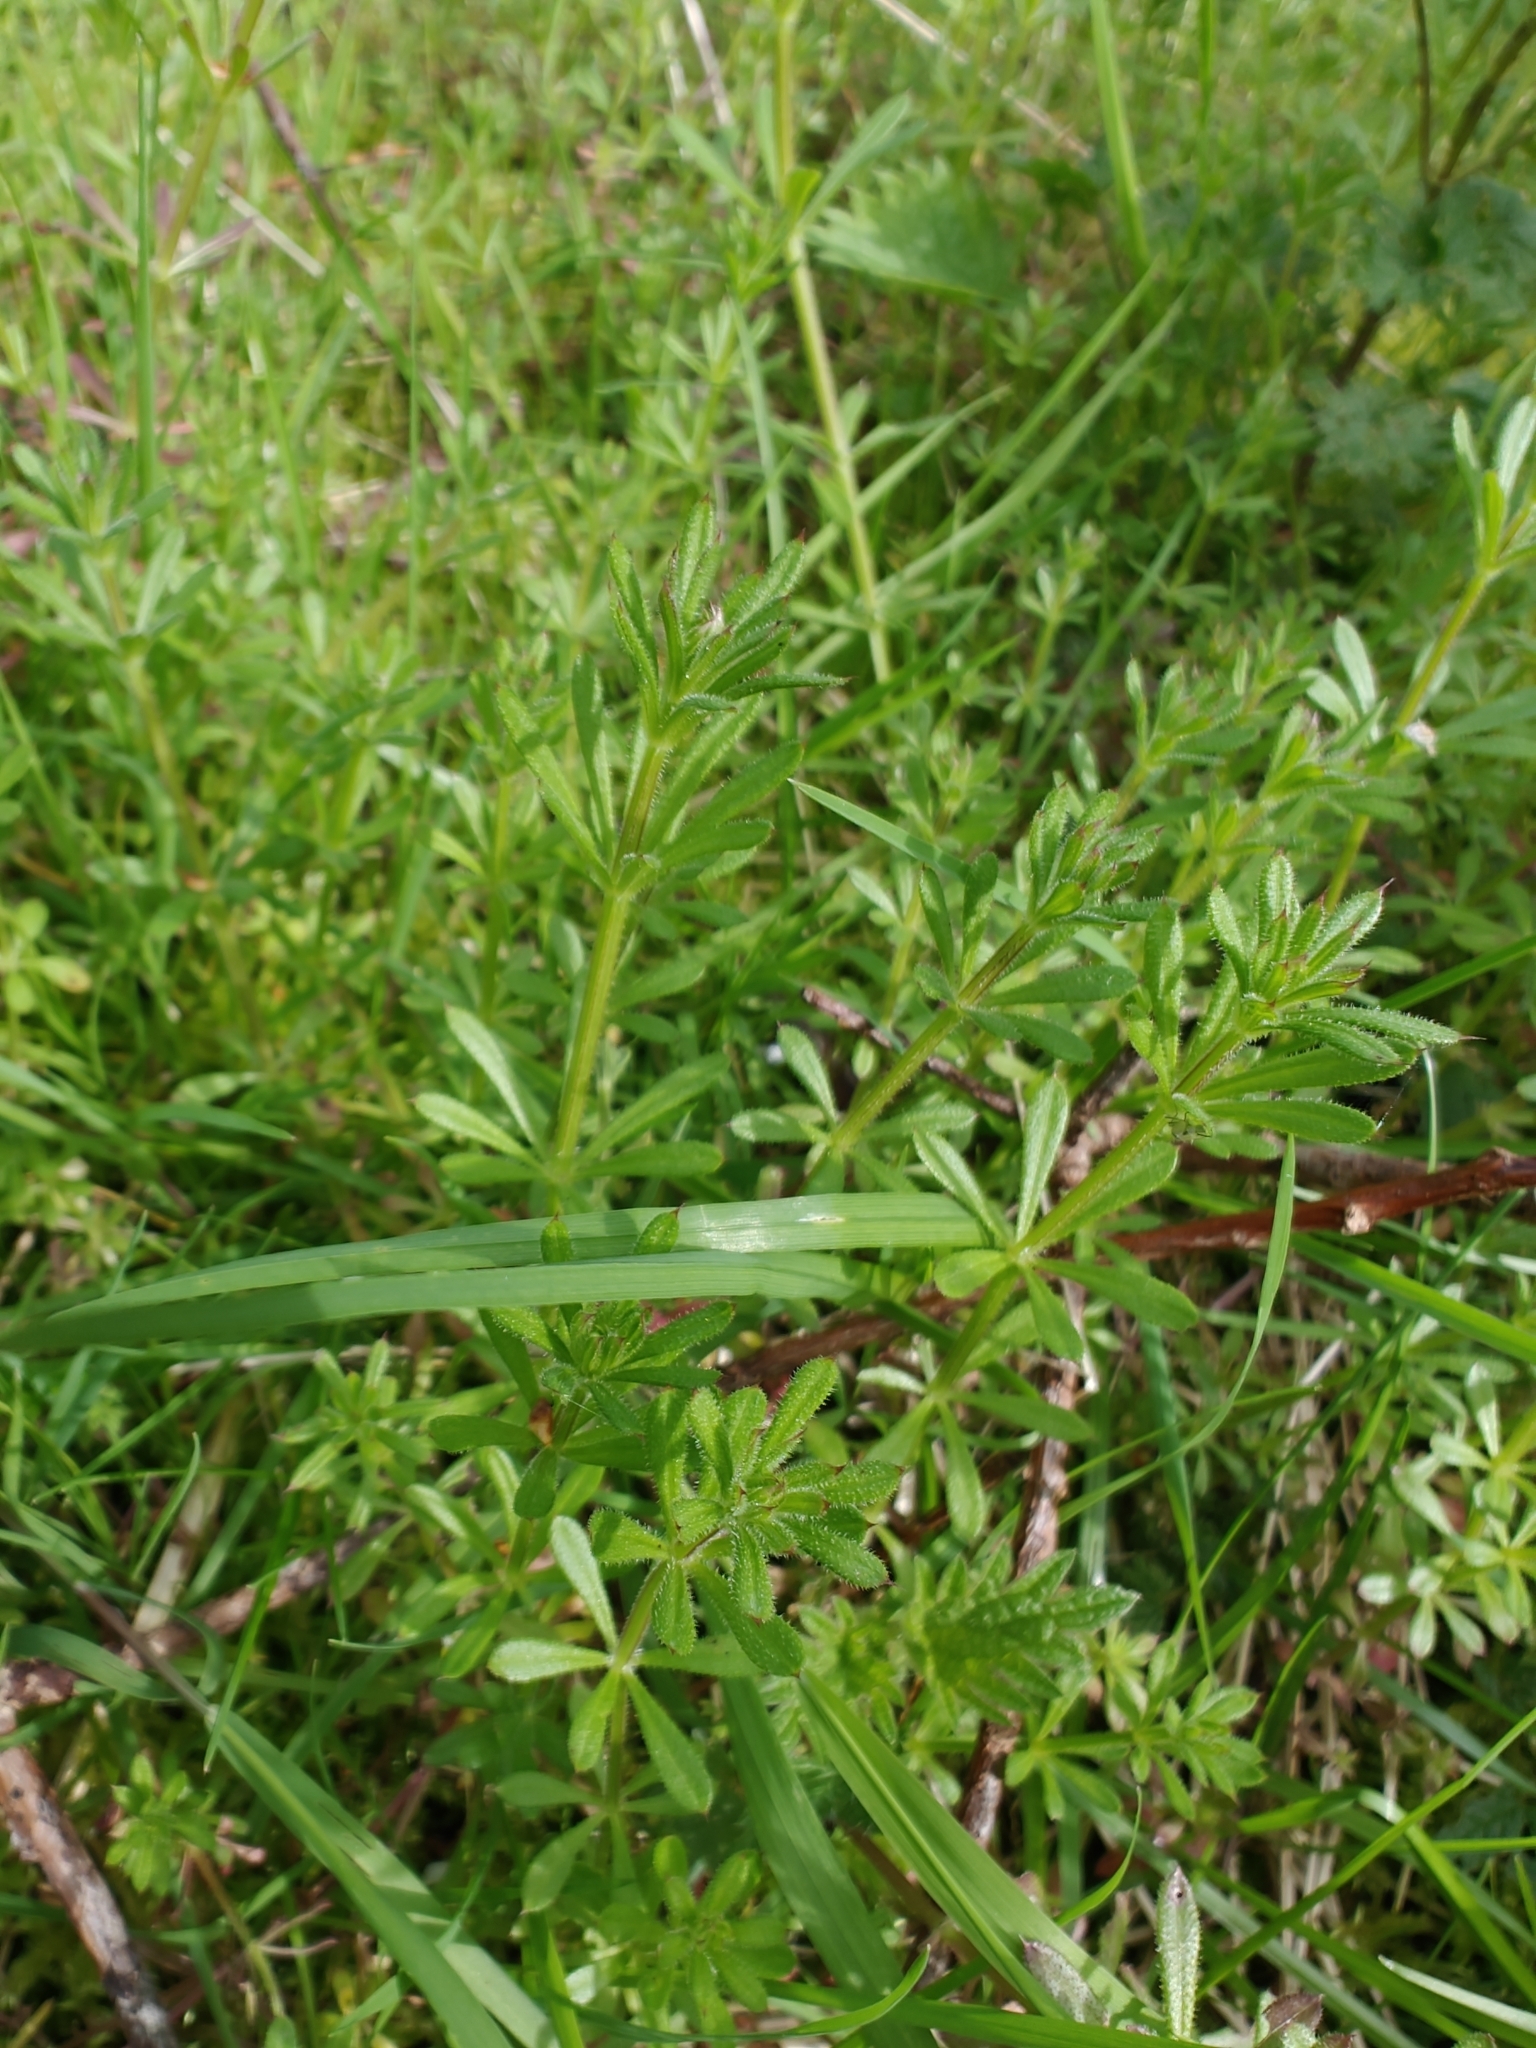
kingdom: Plantae
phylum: Tracheophyta
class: Magnoliopsida
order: Gentianales
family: Rubiaceae
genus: Galium
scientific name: Galium aparine
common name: Cleavers
